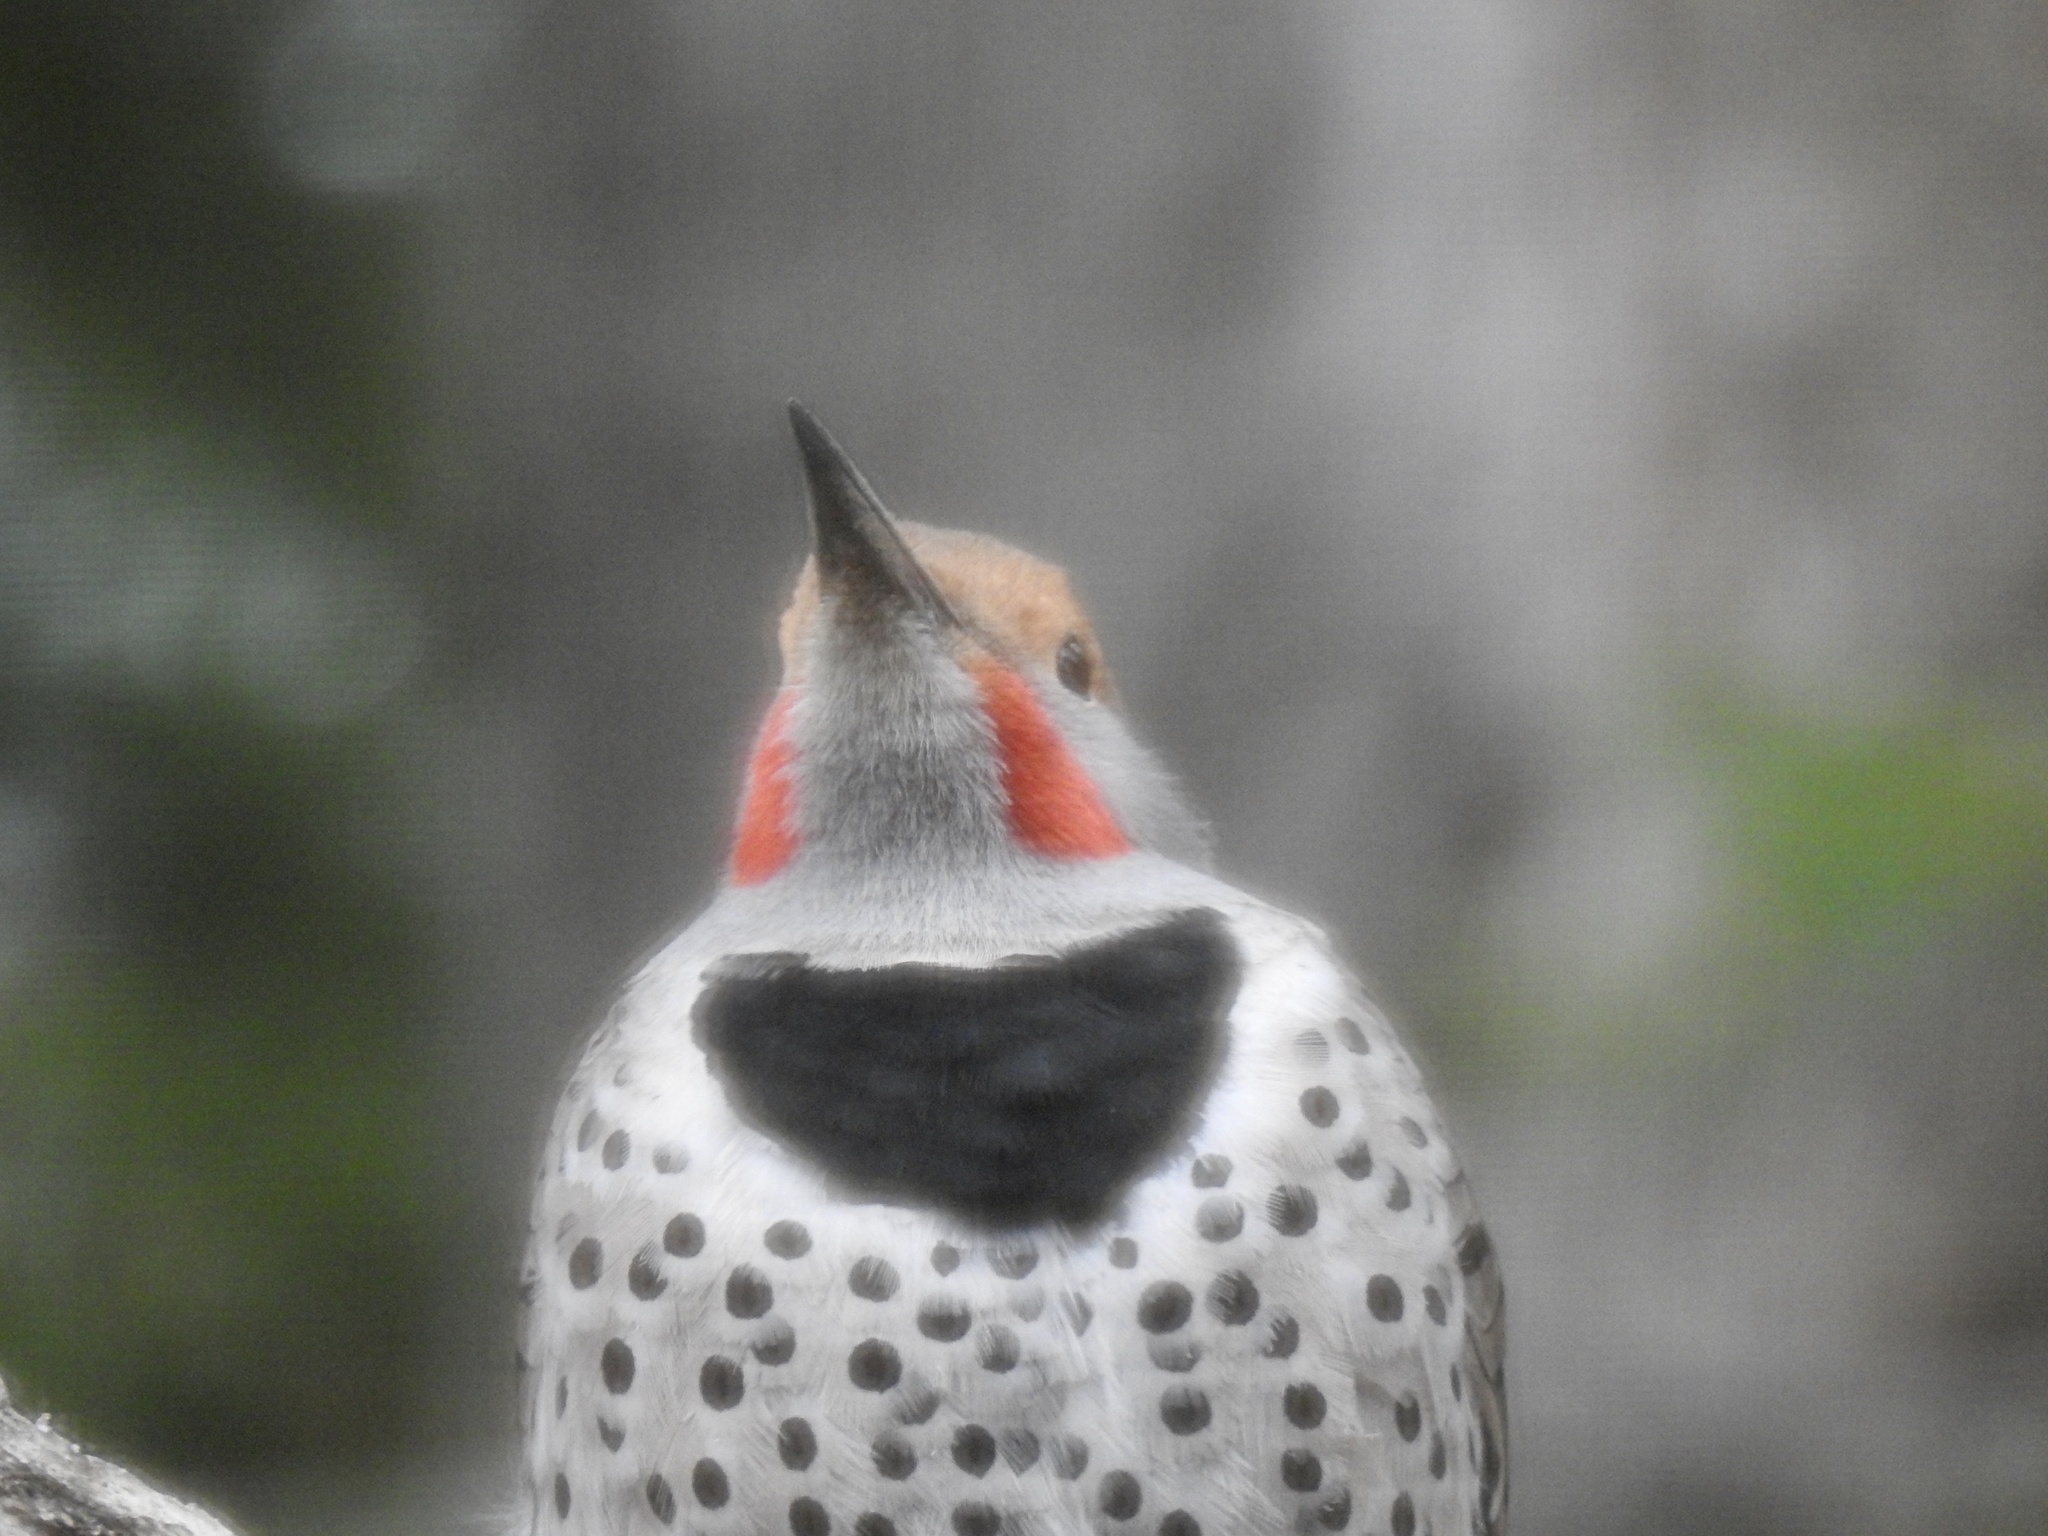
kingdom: Animalia
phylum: Chordata
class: Aves
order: Piciformes
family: Picidae
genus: Colaptes
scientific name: Colaptes auratus
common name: Northern flicker
